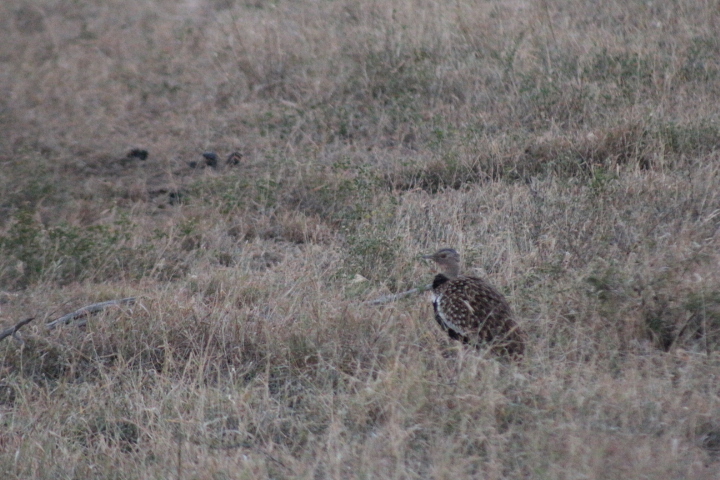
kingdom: Animalia
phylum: Chordata
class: Aves
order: Otidiformes
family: Otididae
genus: Lophotis
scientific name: Lophotis ruficrista
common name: Red-crested korhaan
